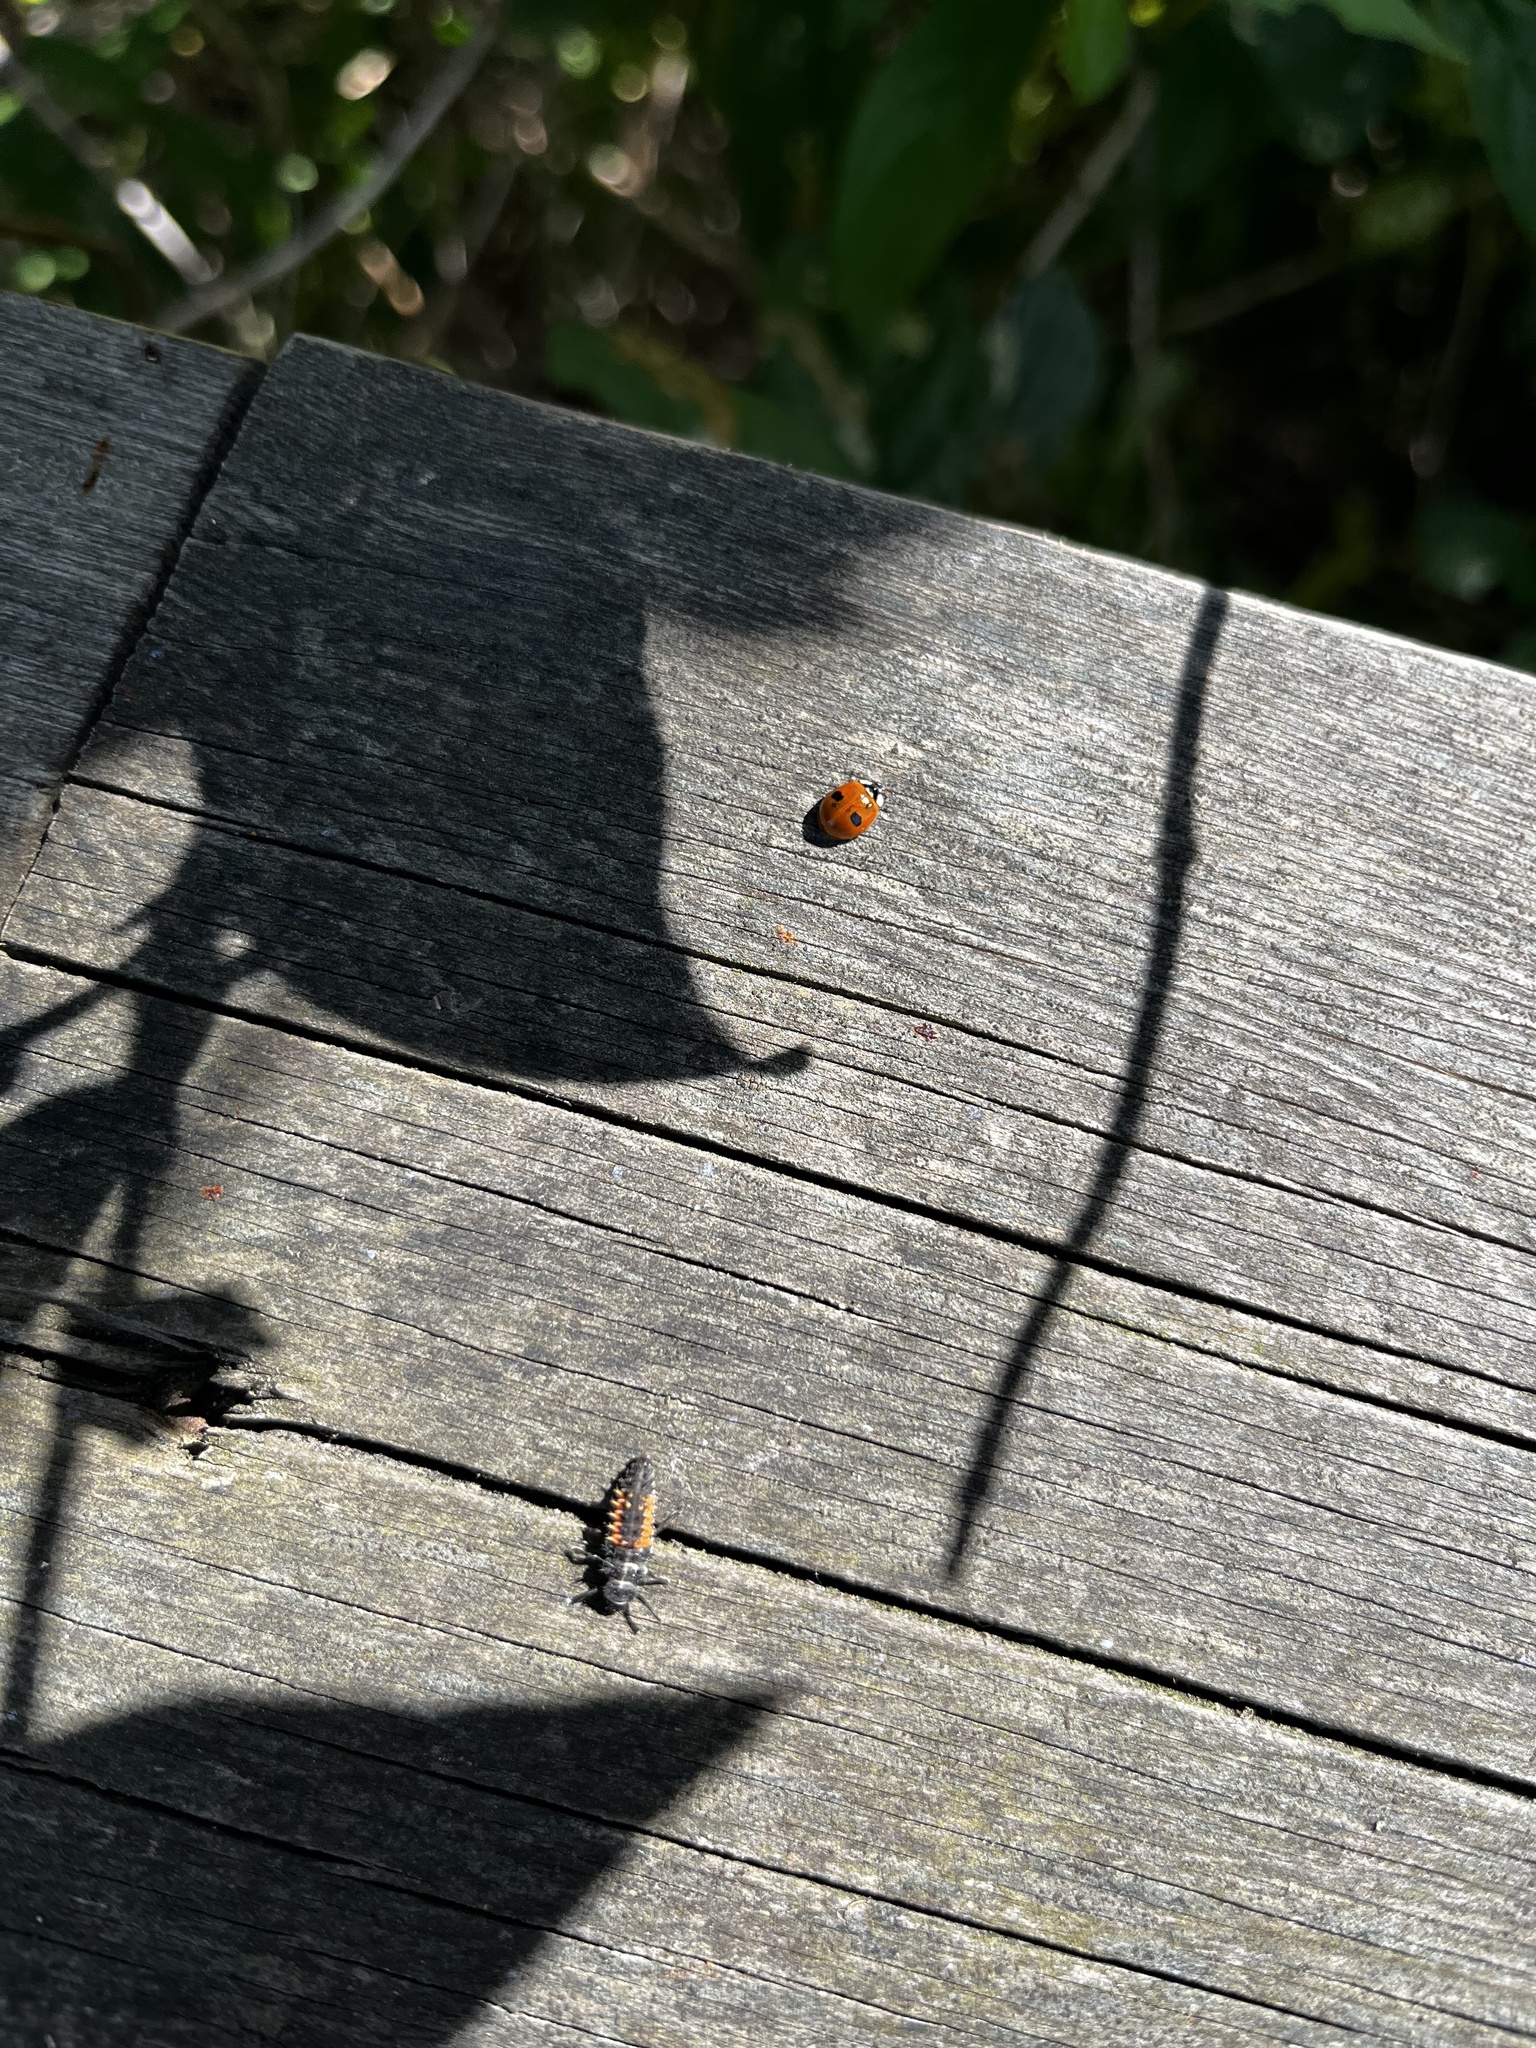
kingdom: Animalia
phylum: Arthropoda
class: Insecta
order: Coleoptera
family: Coccinellidae
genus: Harmonia
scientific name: Harmonia axyridis
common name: Harlequin ladybird
